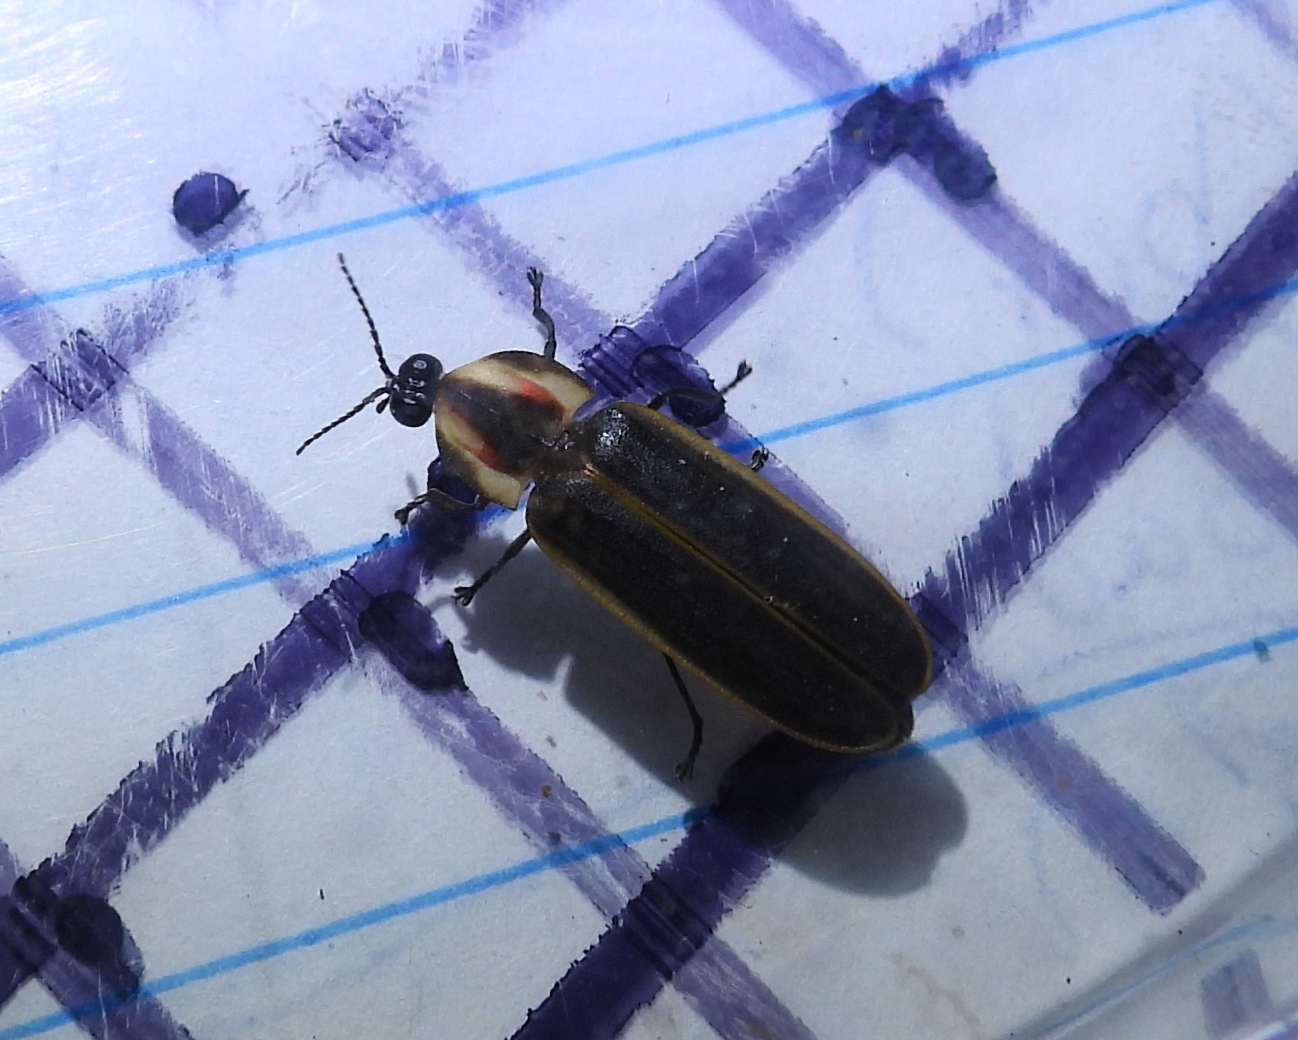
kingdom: Animalia
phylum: Arthropoda
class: Insecta
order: Coleoptera
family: Lampyridae
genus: Pyractomena
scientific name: Pyractomena borealis
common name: Northern firefly
